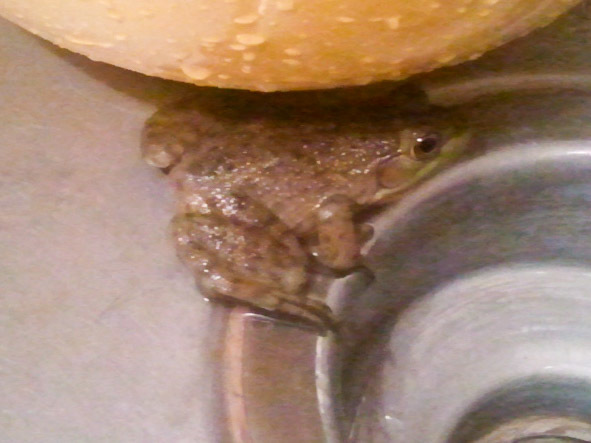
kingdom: Animalia
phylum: Chordata
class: Amphibia
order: Anura
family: Ranidae
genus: Lithobates
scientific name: Lithobates catesbeianus
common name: American bullfrog
